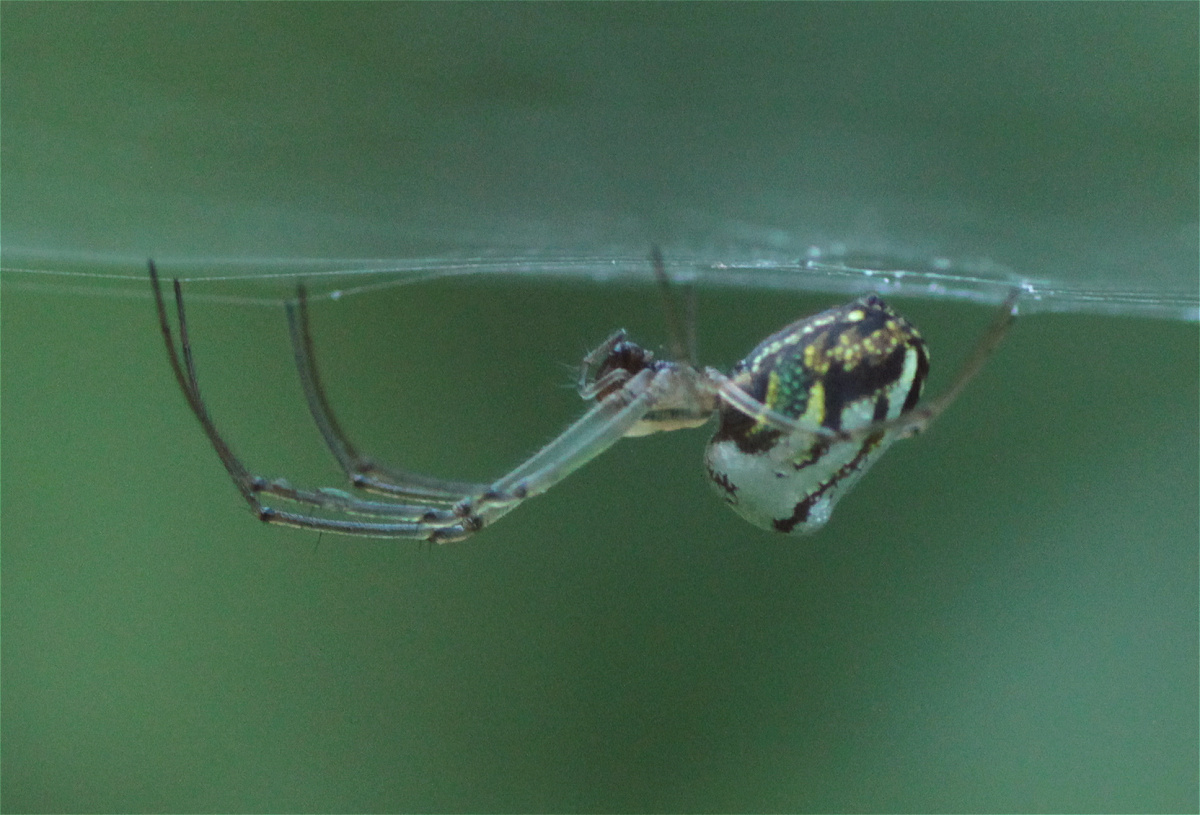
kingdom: Animalia
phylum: Arthropoda
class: Arachnida
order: Araneae
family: Tetragnathidae
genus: Leucauge
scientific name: Leucauge volupis
